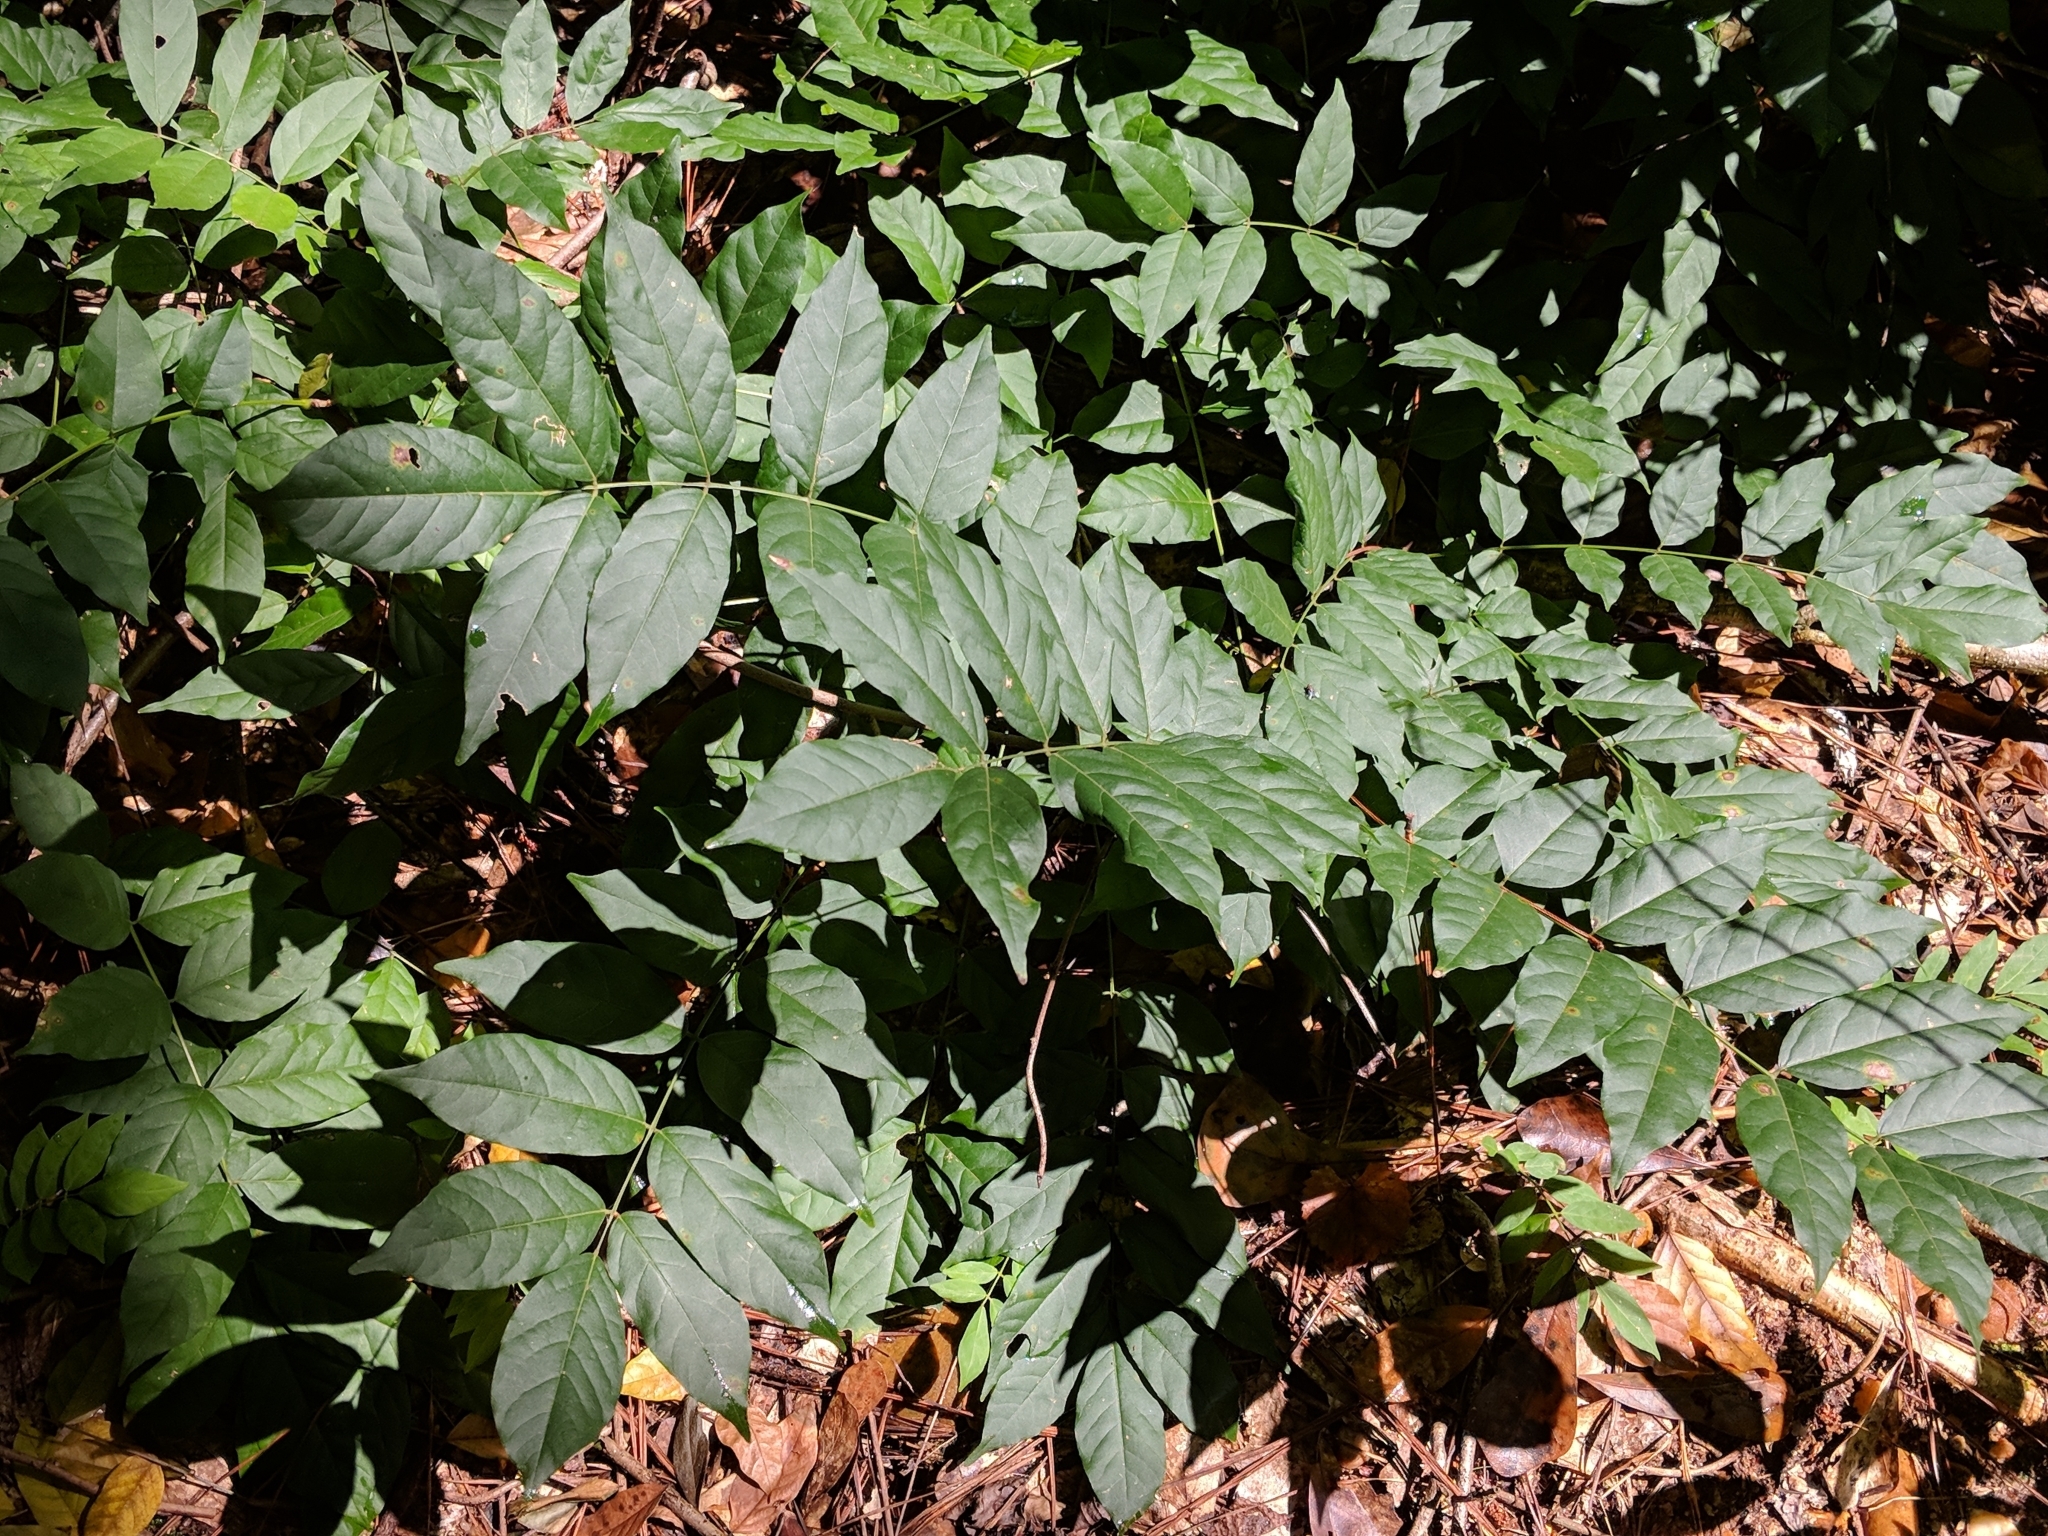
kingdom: Plantae
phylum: Tracheophyta
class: Magnoliopsida
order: Fabales
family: Fabaceae
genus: Wisteria
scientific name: Wisteria sinensis
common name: Chinese wisteria
